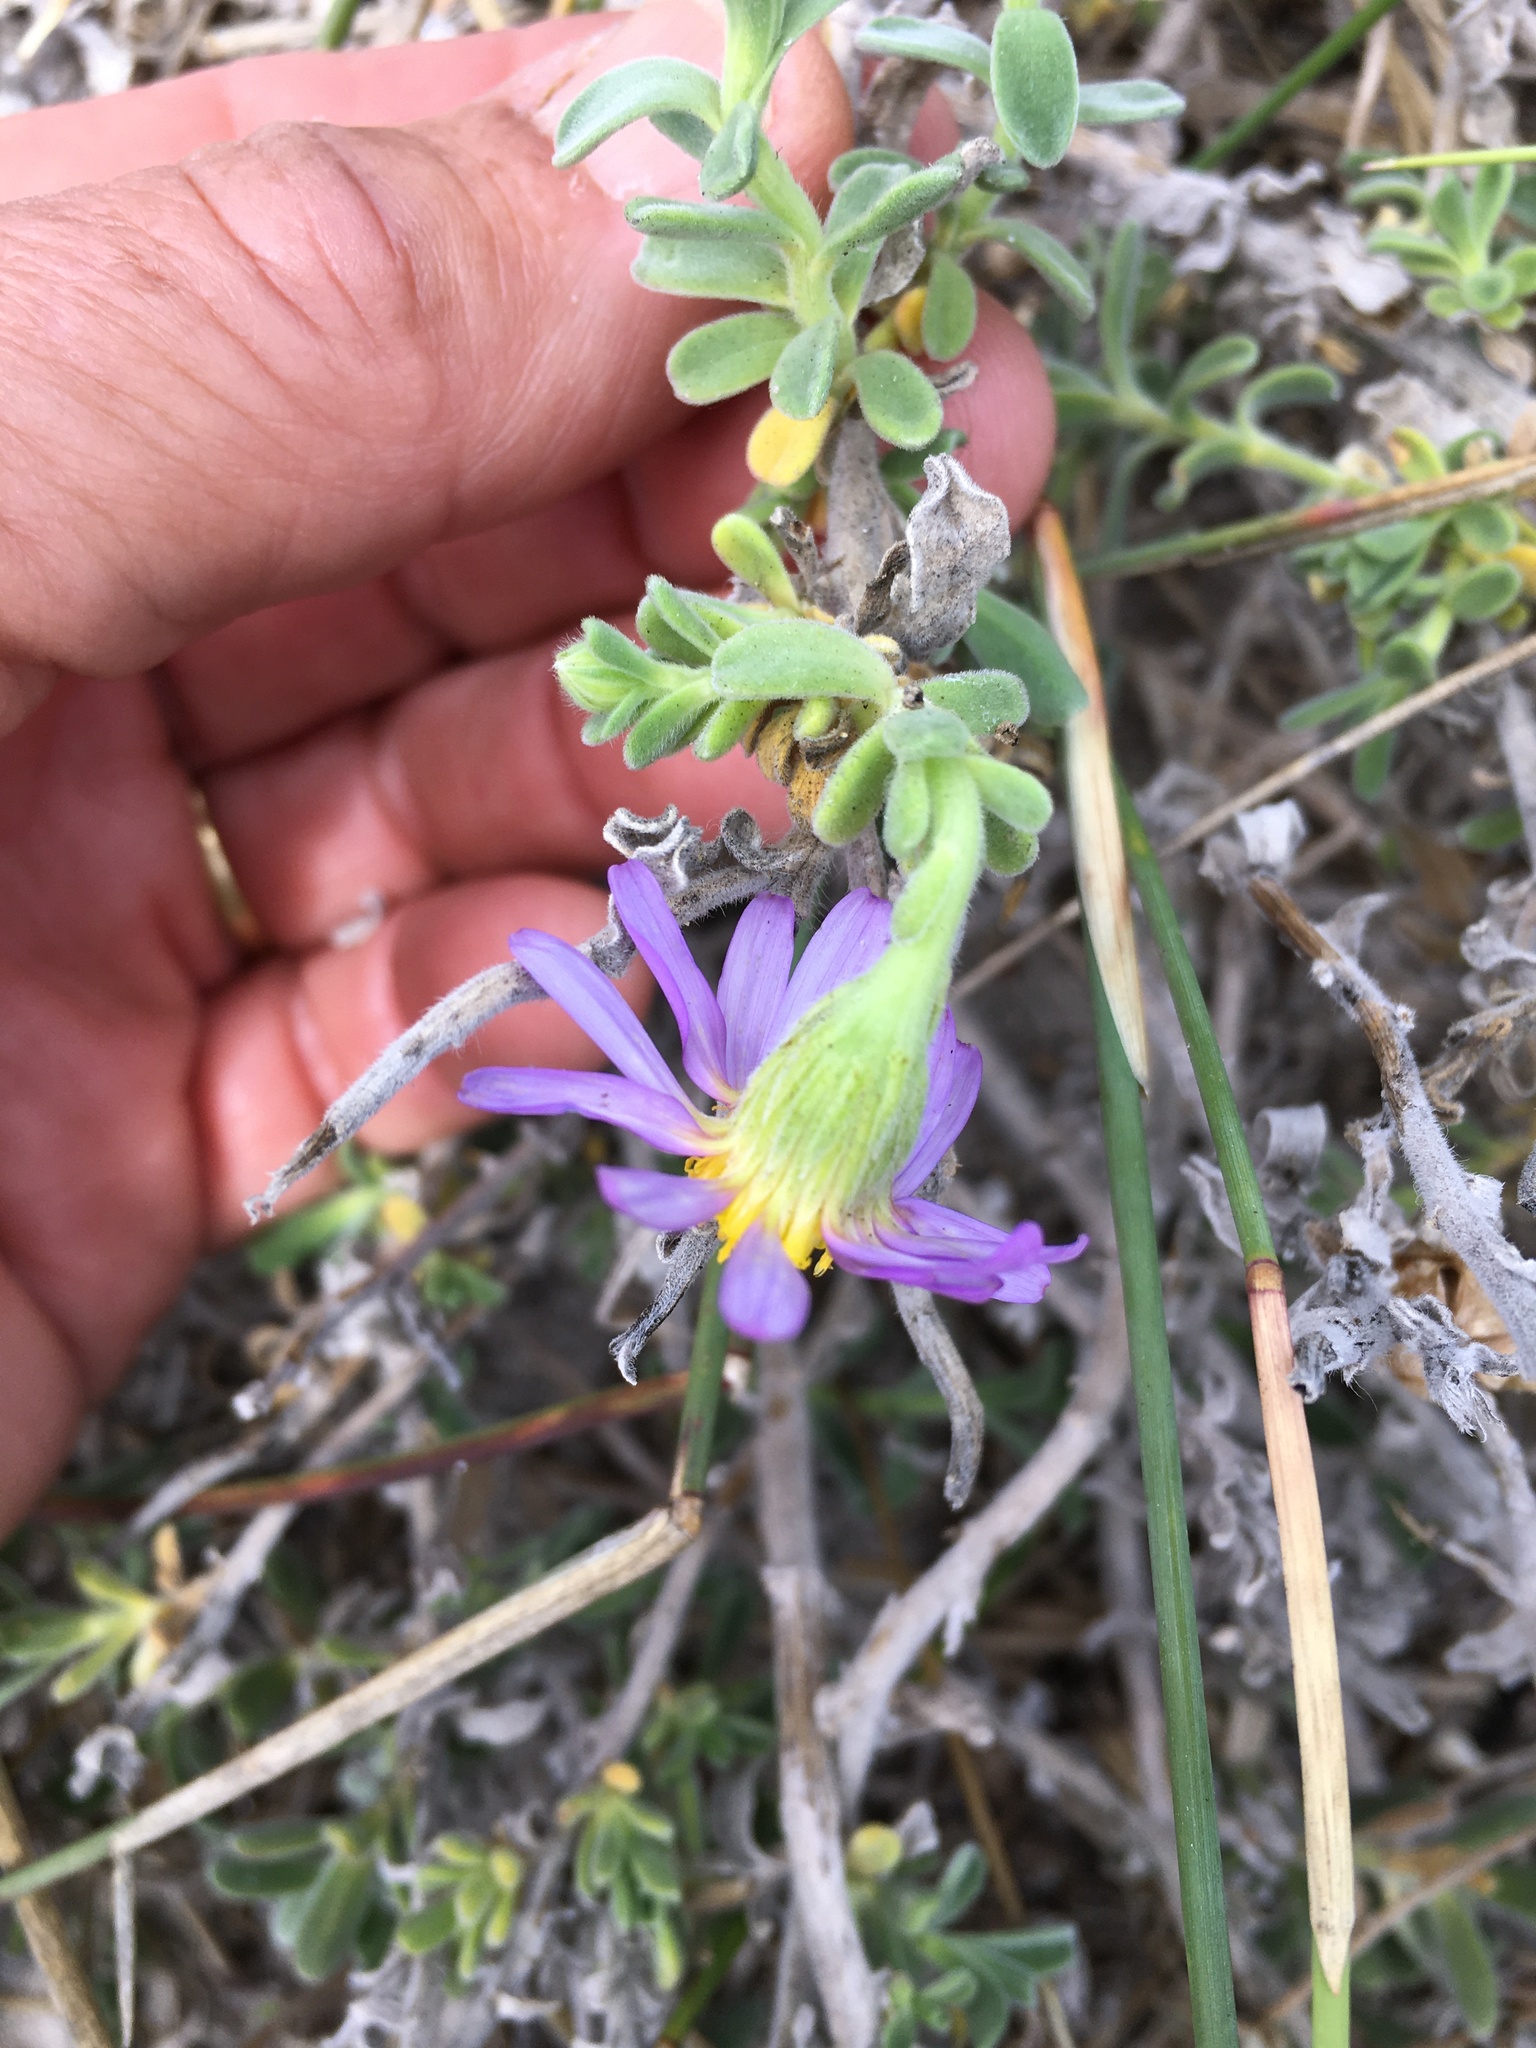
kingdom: Plantae
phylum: Tracheophyta
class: Magnoliopsida
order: Asterales
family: Asteraceae
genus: Amellus
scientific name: Amellus asteroides
